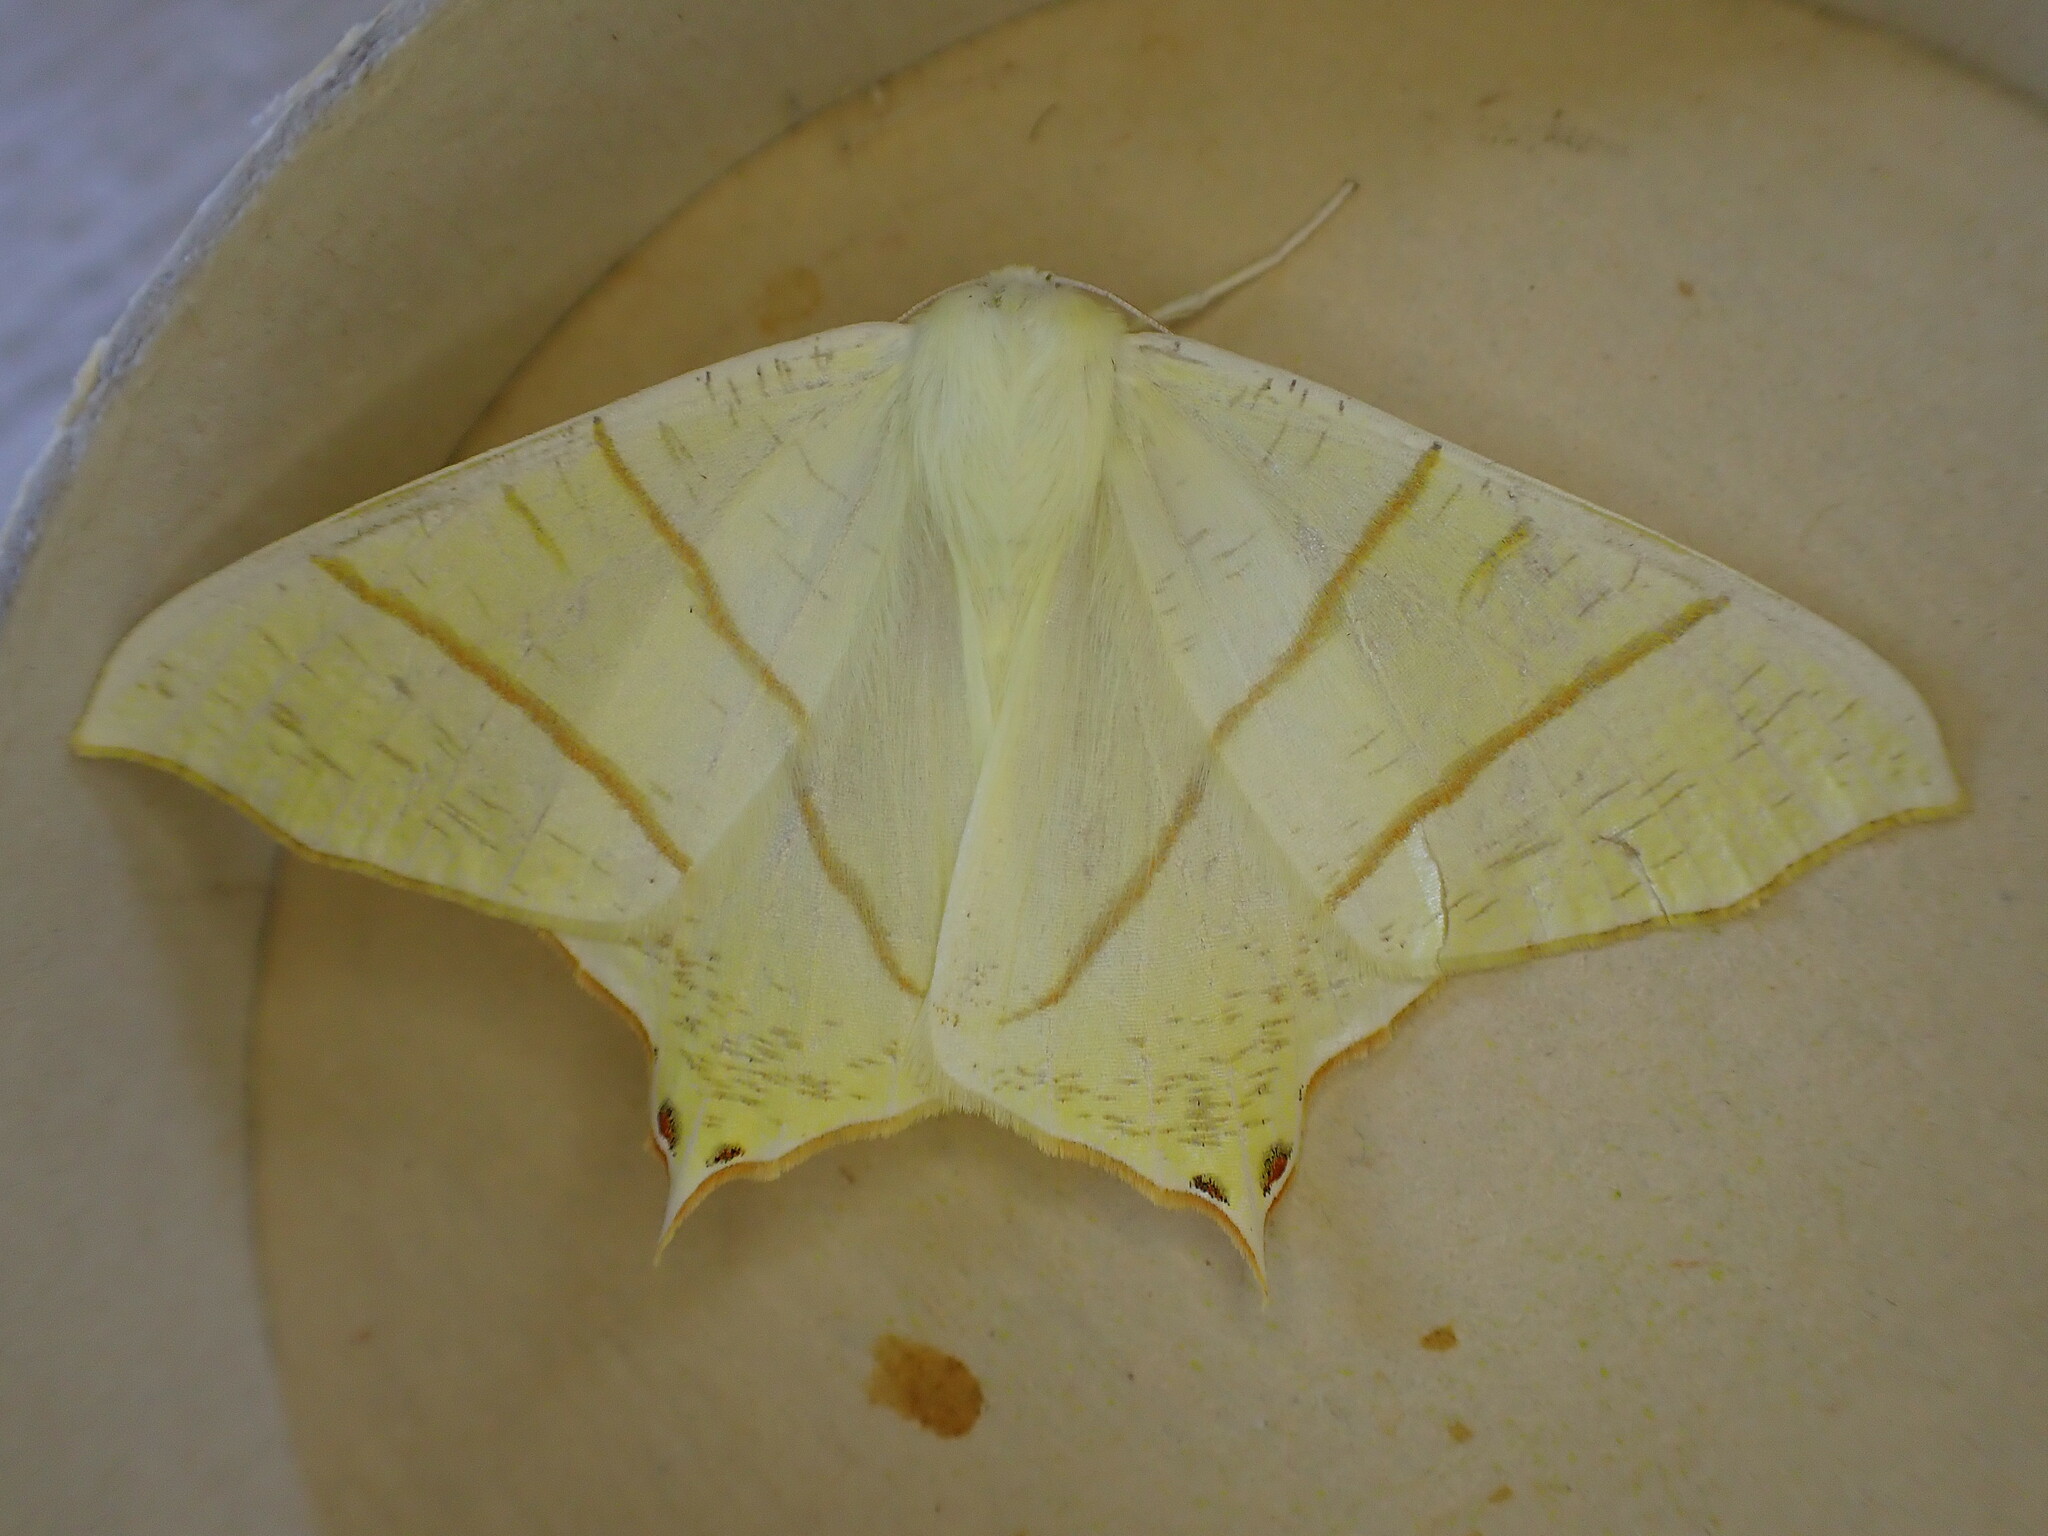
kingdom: Animalia
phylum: Arthropoda
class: Insecta
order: Lepidoptera
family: Geometridae
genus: Ourapteryx
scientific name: Ourapteryx sambucaria
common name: Swallow-tailed moth
